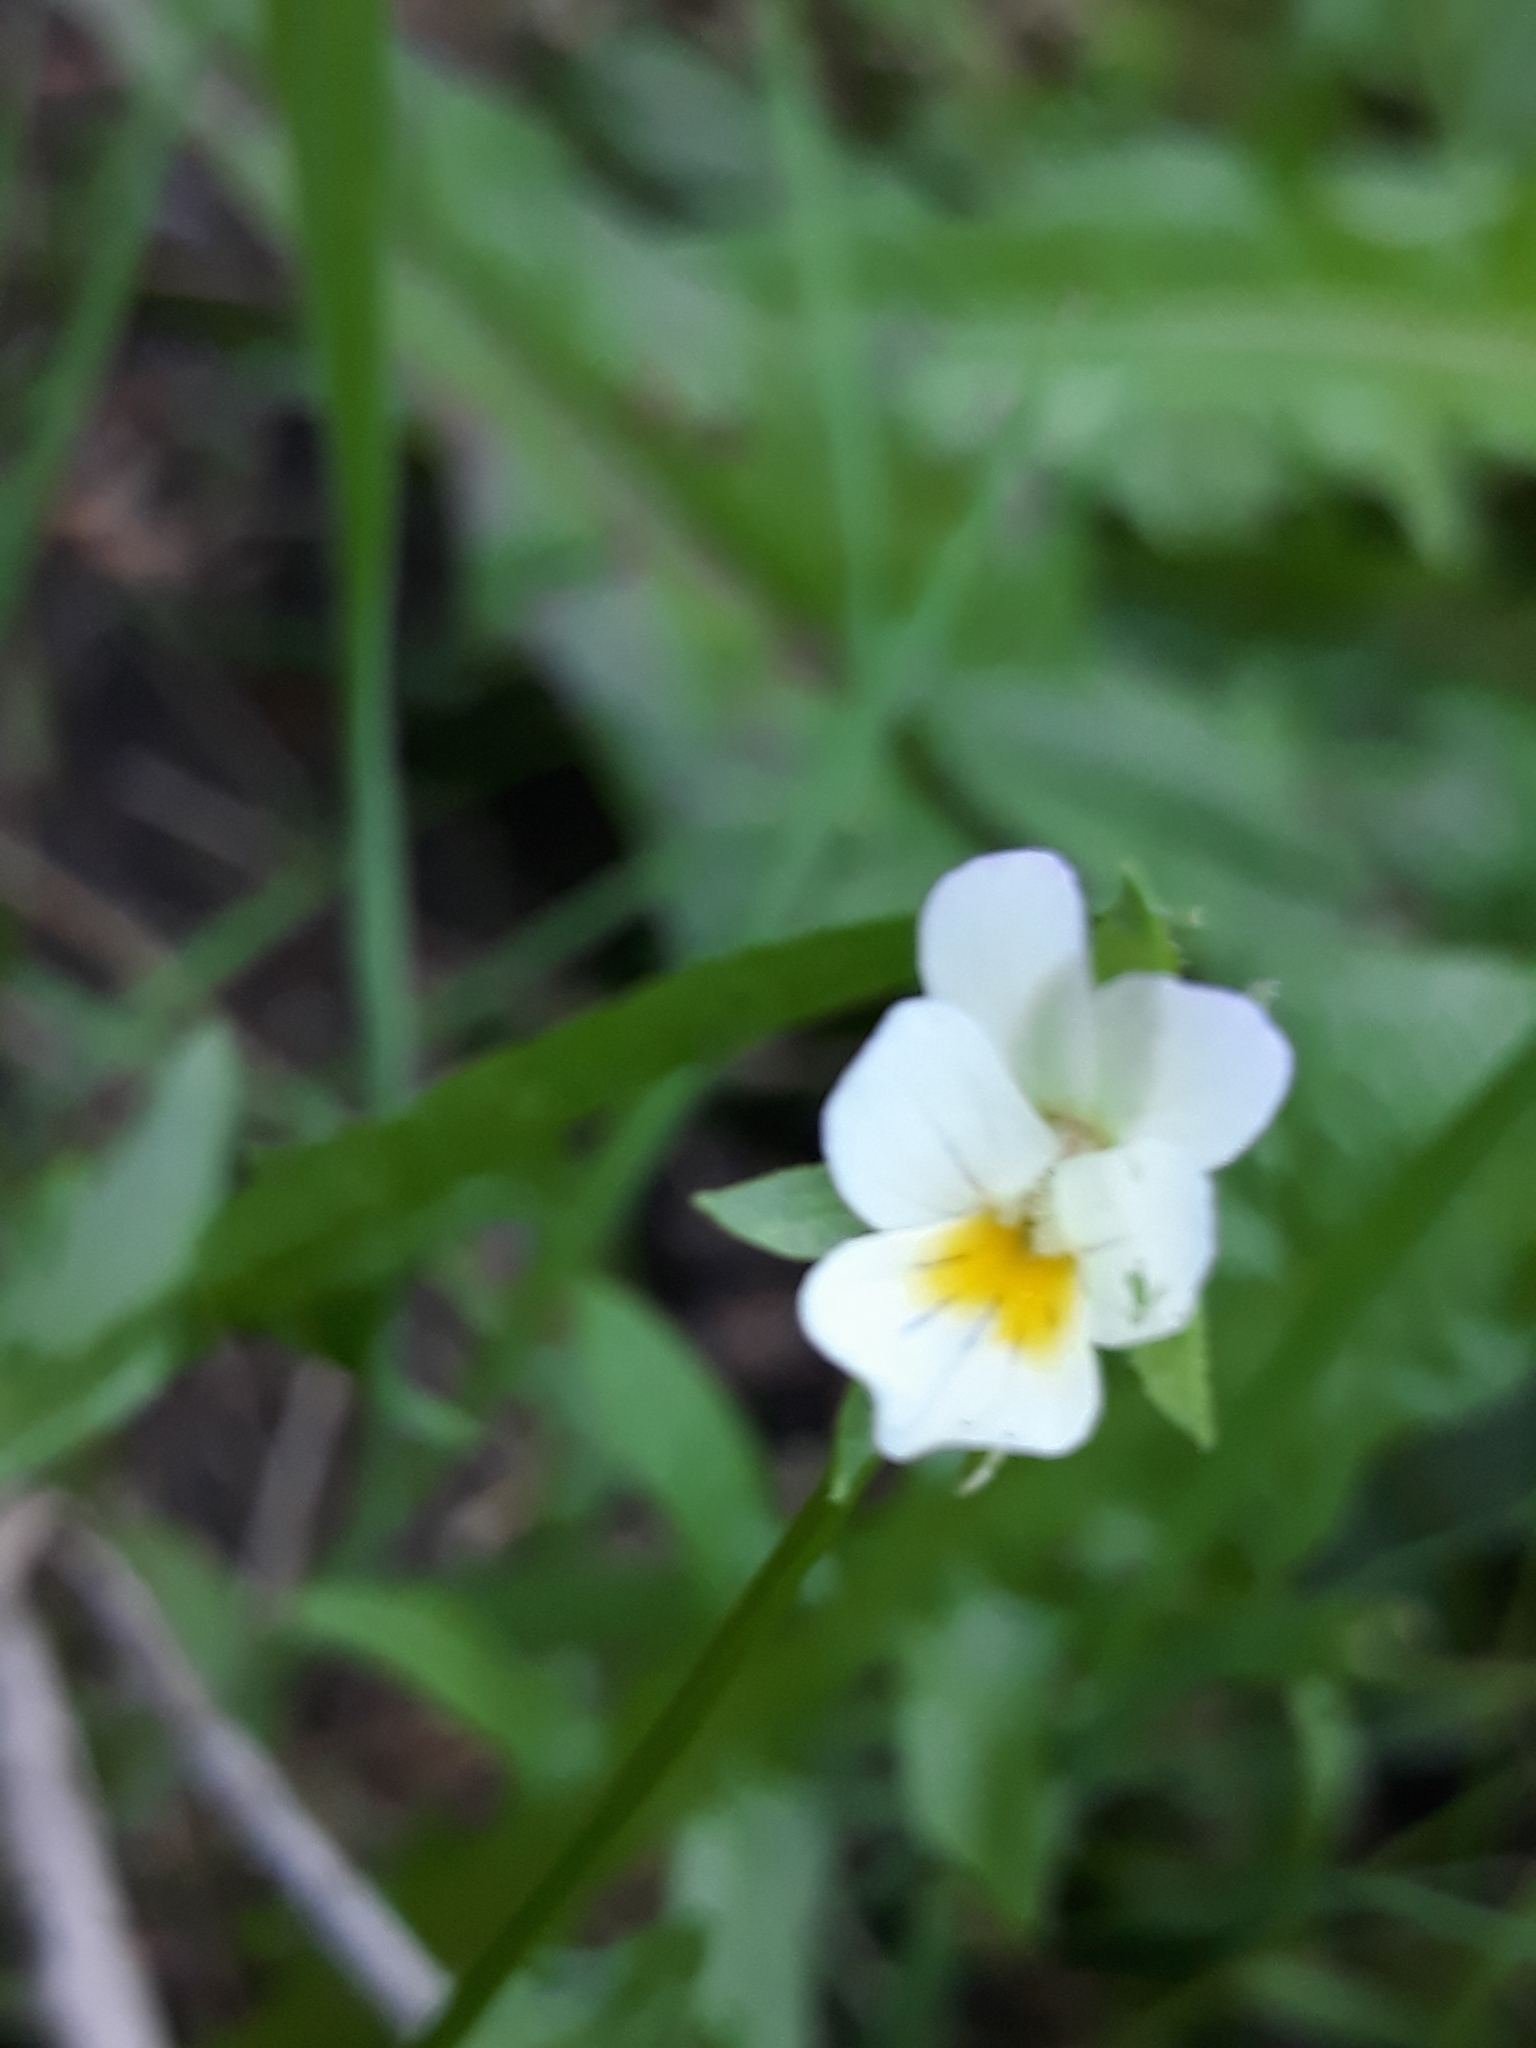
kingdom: Plantae
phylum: Tracheophyta
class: Magnoliopsida
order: Malpighiales
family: Violaceae
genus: Viola
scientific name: Viola arvensis
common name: Field pansy
